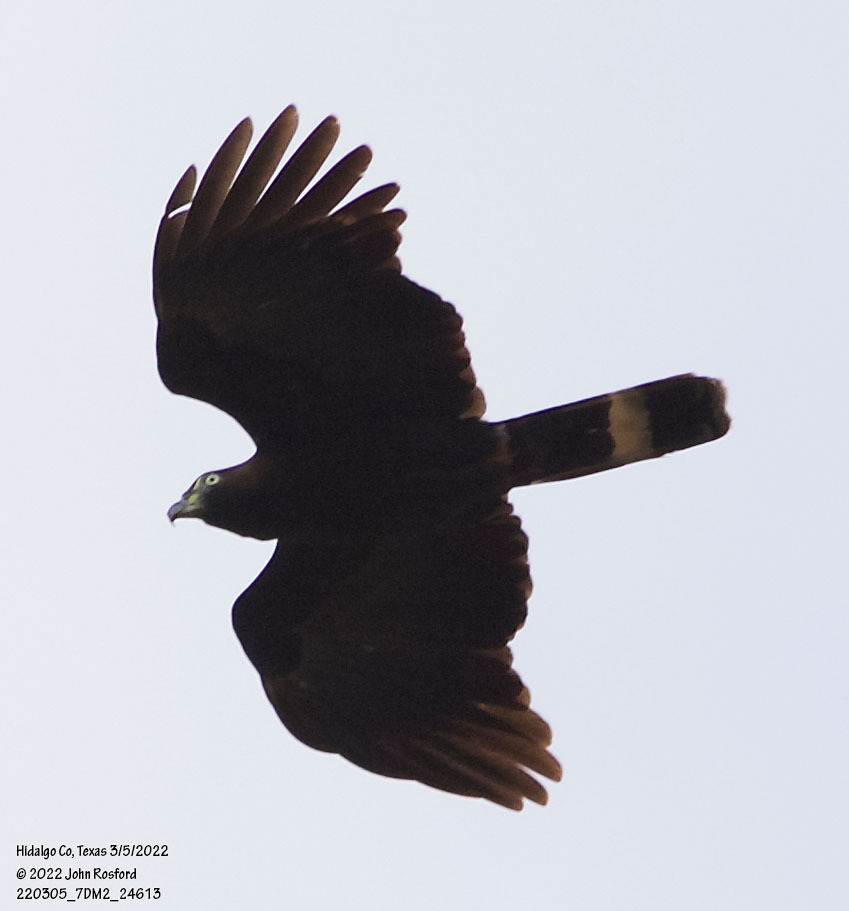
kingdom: Animalia
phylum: Chordata
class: Aves
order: Accipitriformes
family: Accipitridae
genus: Chondrohierax
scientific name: Chondrohierax uncinatus
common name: Hook-billed kite
